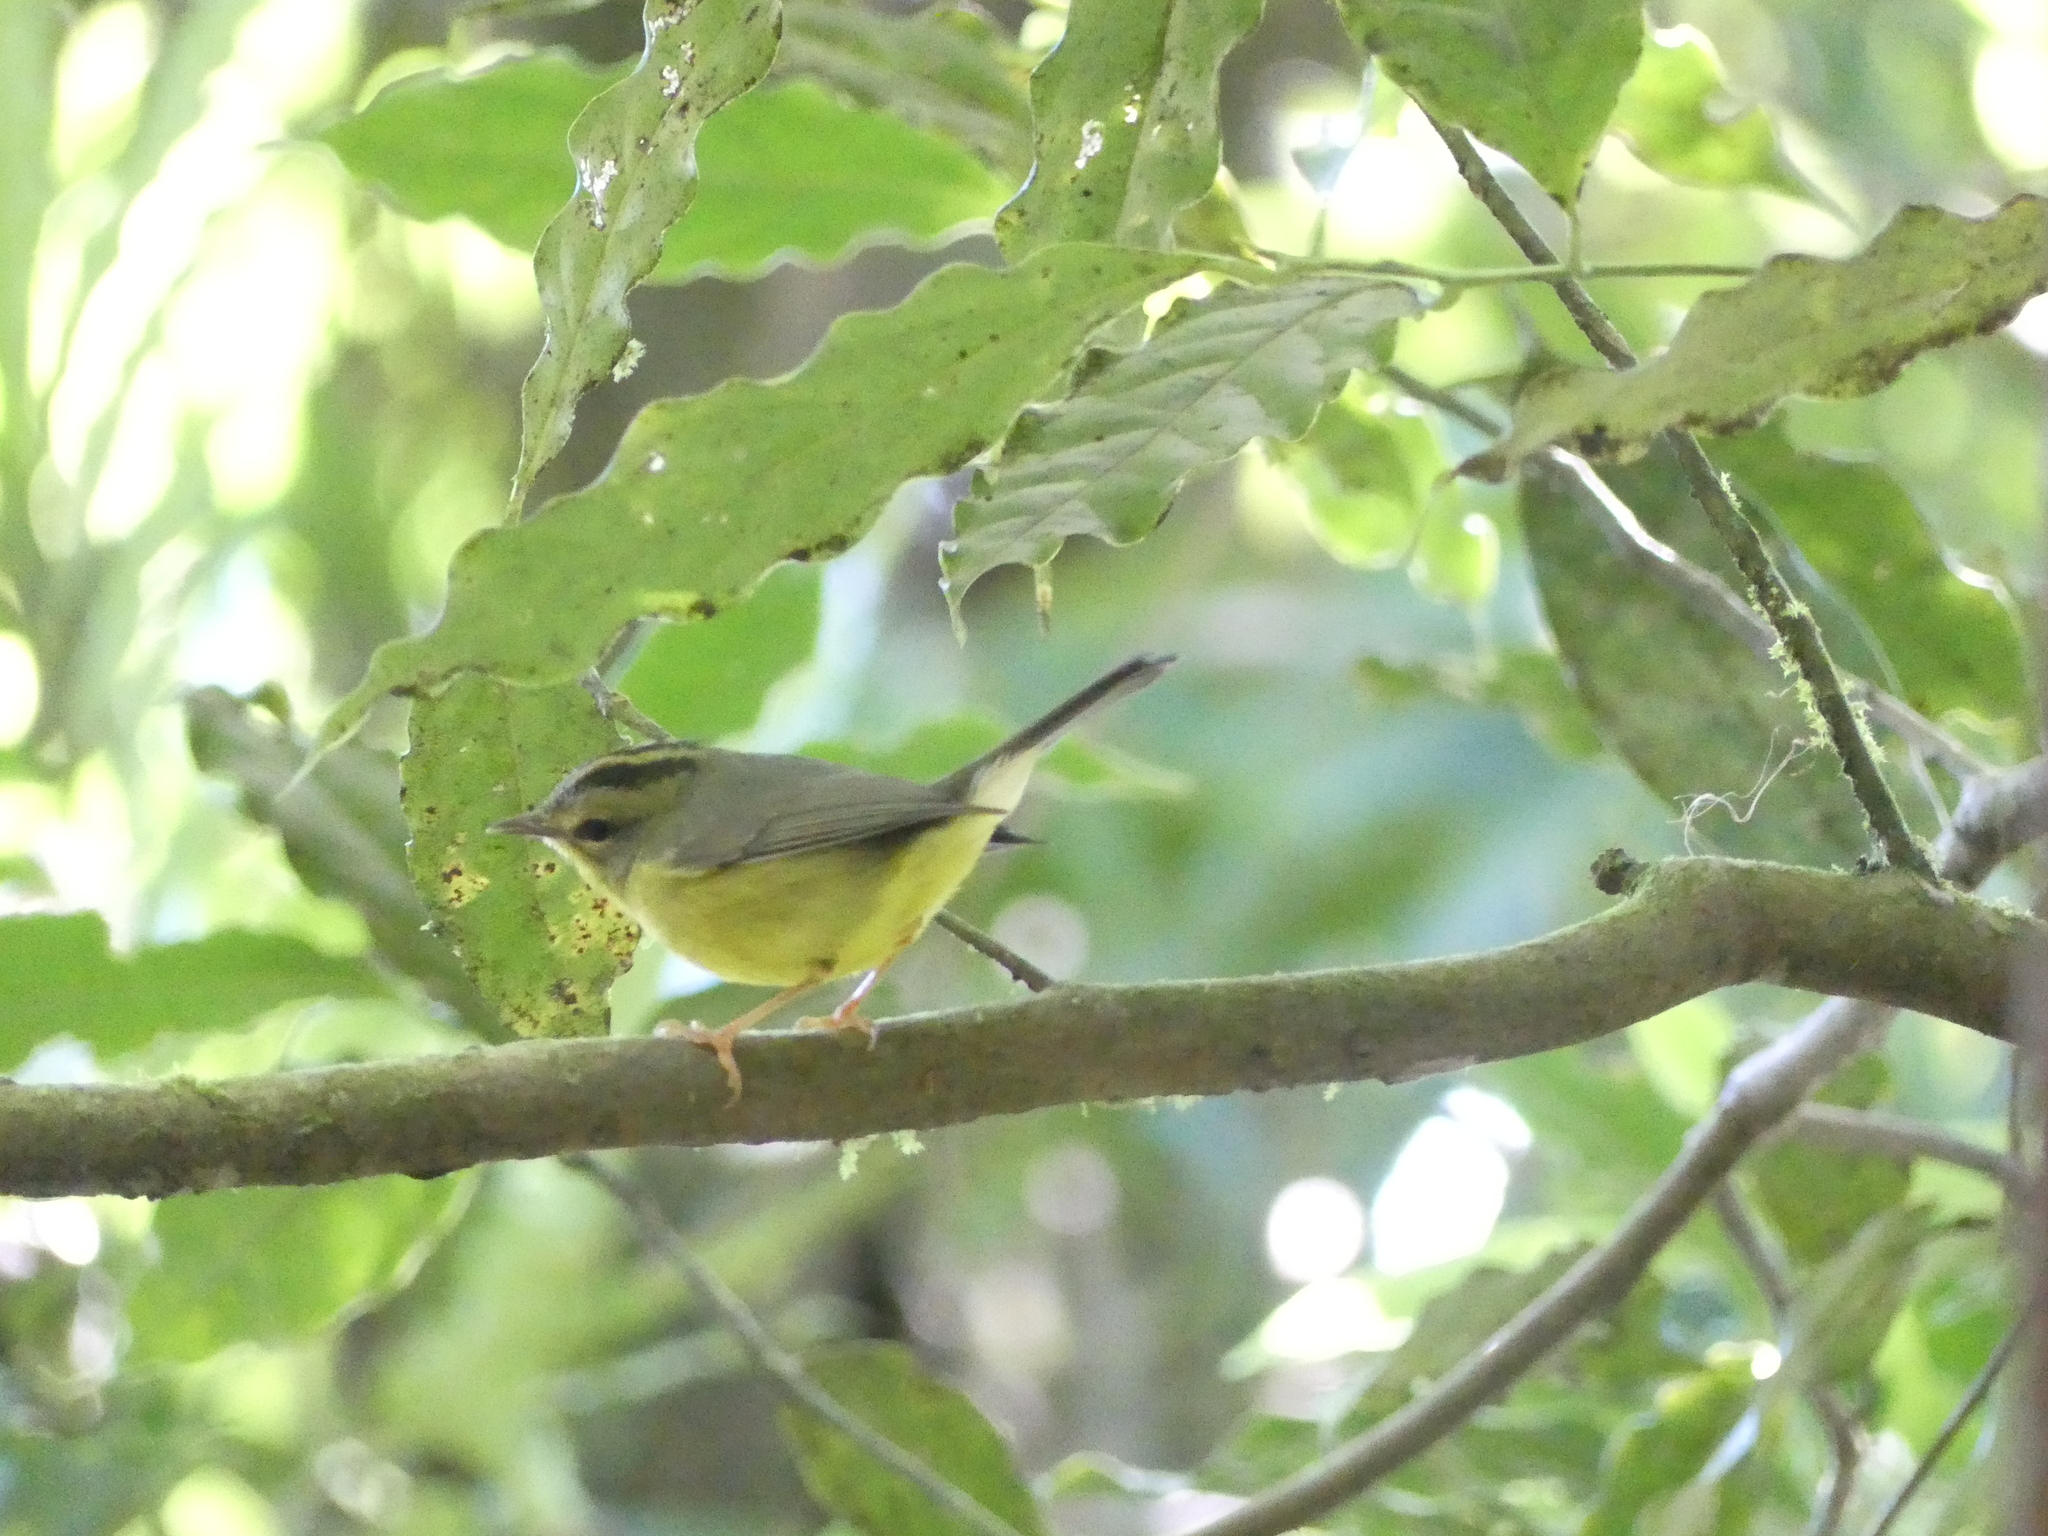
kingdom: Animalia
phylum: Chordata
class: Aves
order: Passeriformes
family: Parulidae
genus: Basileuterus
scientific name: Basileuterus culicivorus
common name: Golden-crowned warbler
